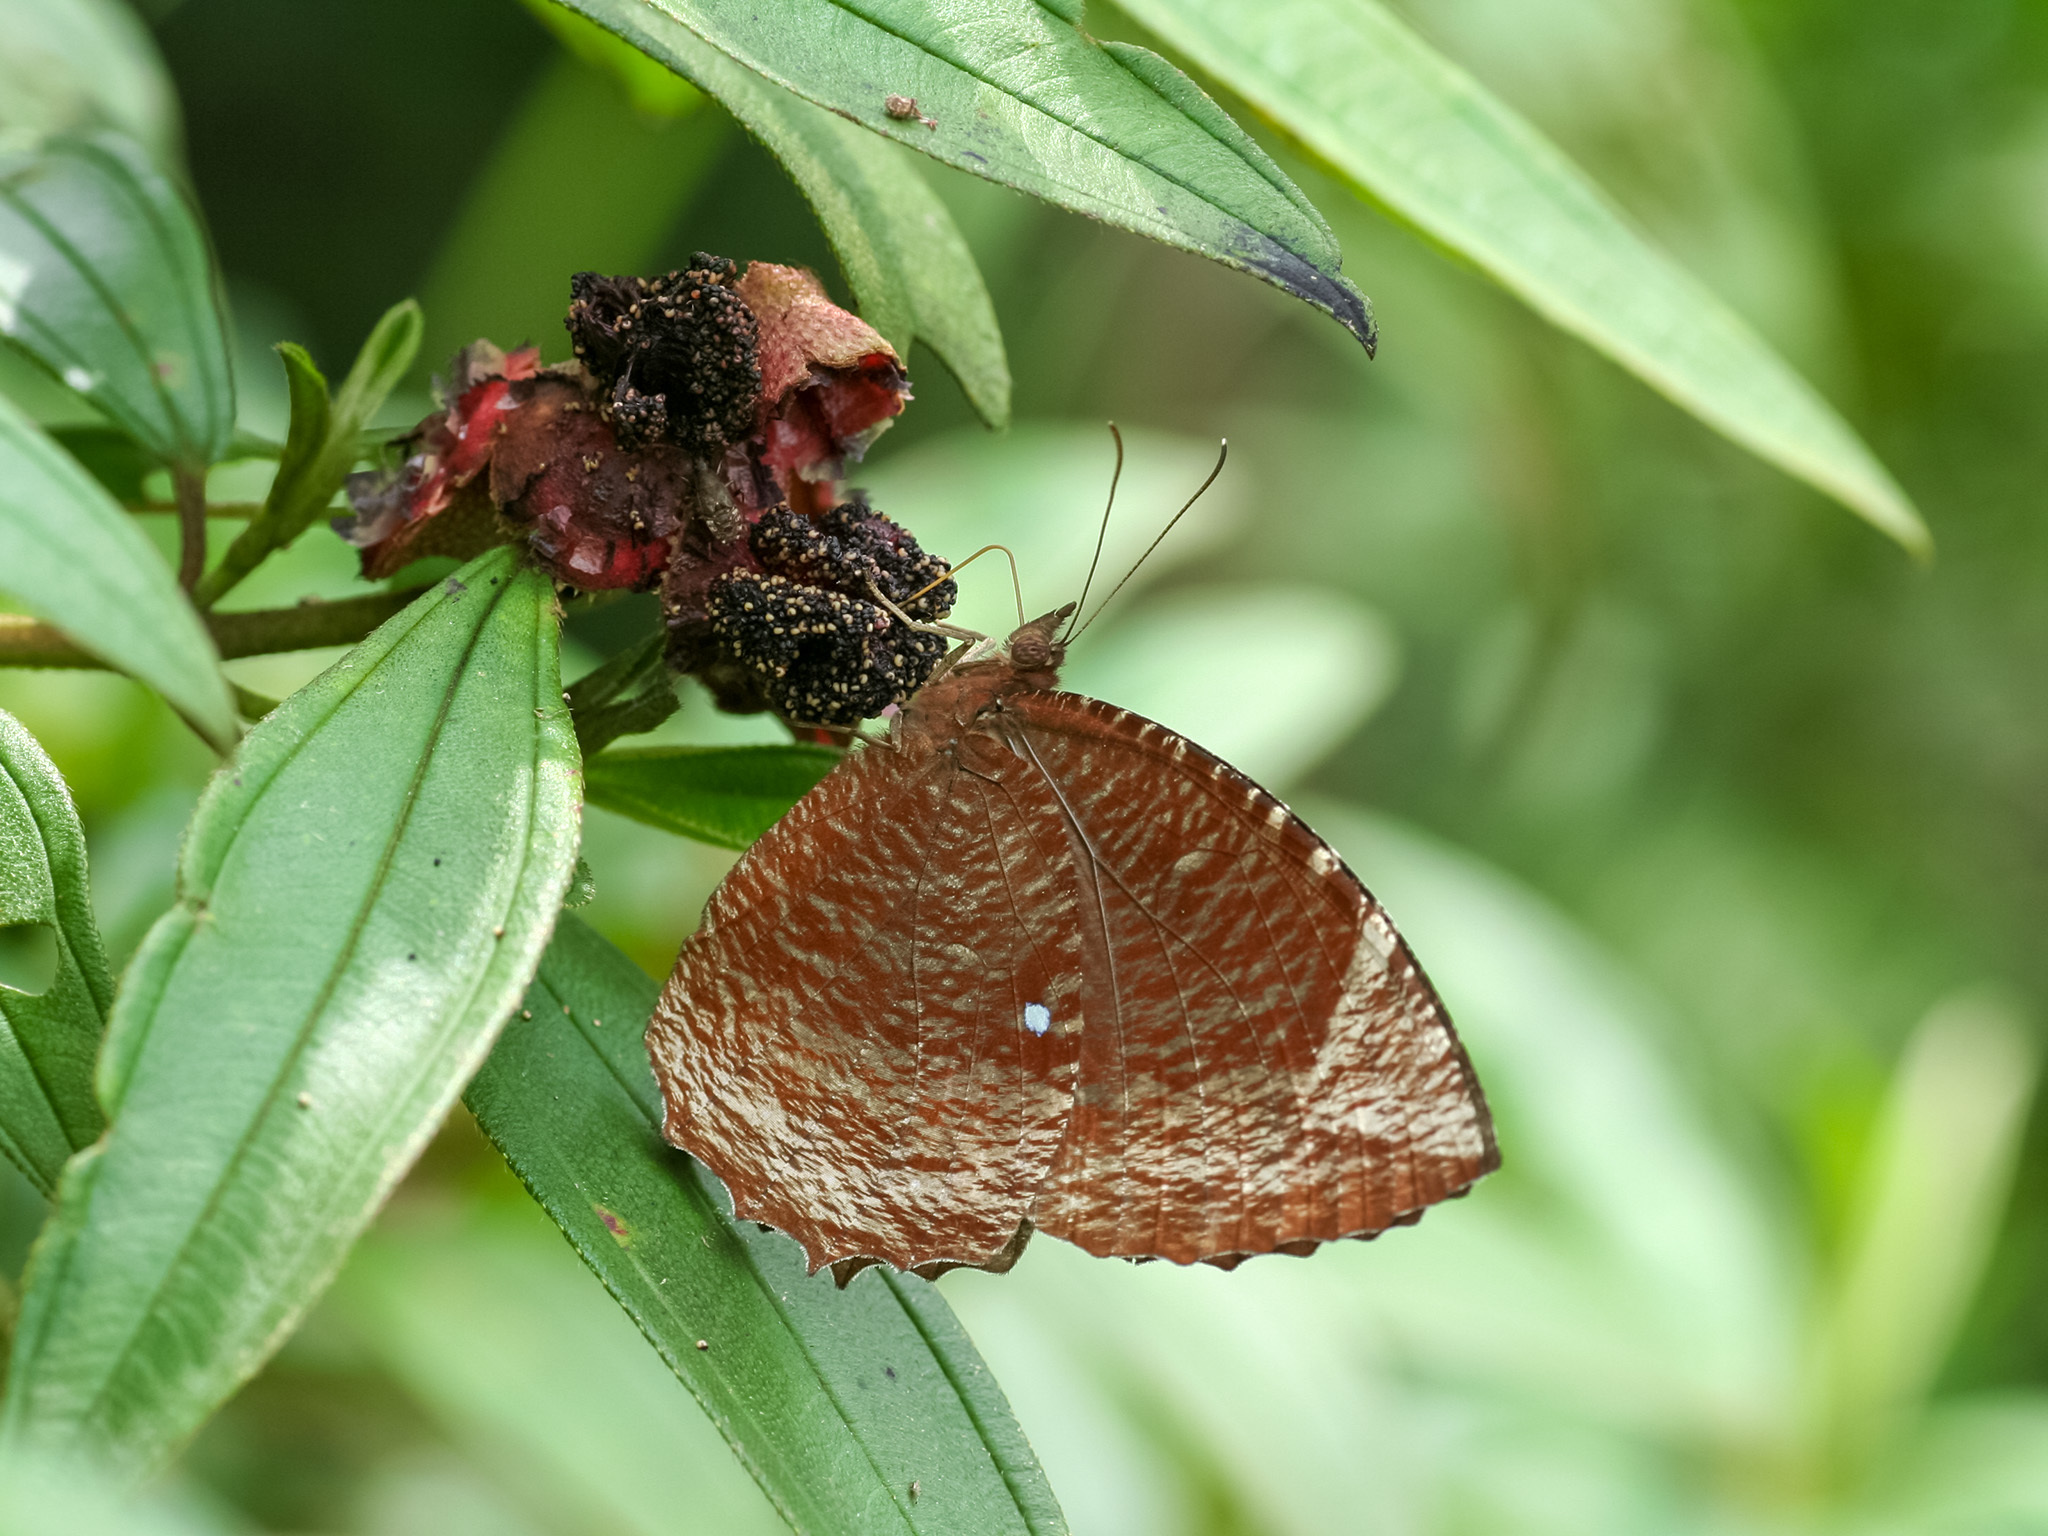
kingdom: Animalia
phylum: Arthropoda
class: Insecta
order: Lepidoptera
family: Nymphalidae
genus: Elymnias
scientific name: Elymnias hypermnestra
